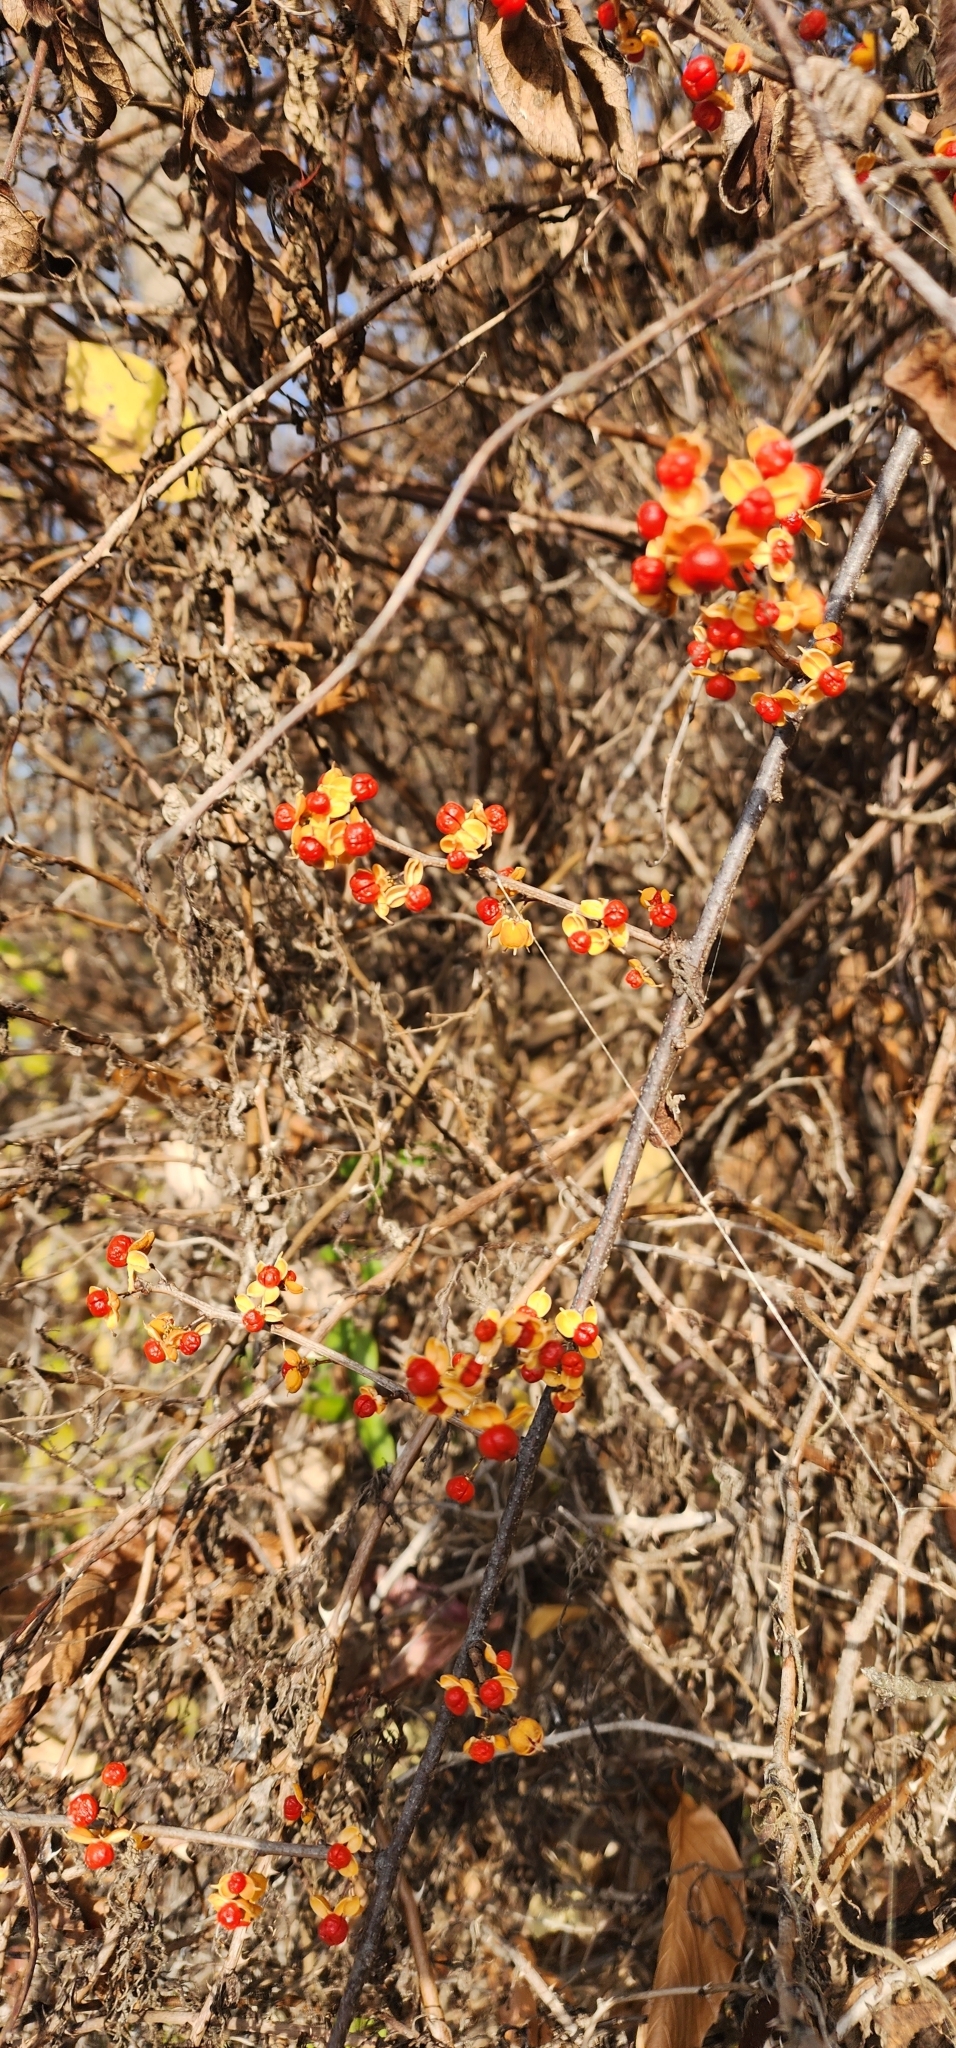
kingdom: Plantae
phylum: Tracheophyta
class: Magnoliopsida
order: Celastrales
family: Celastraceae
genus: Celastrus
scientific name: Celastrus orbiculatus
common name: Oriental bittersweet
